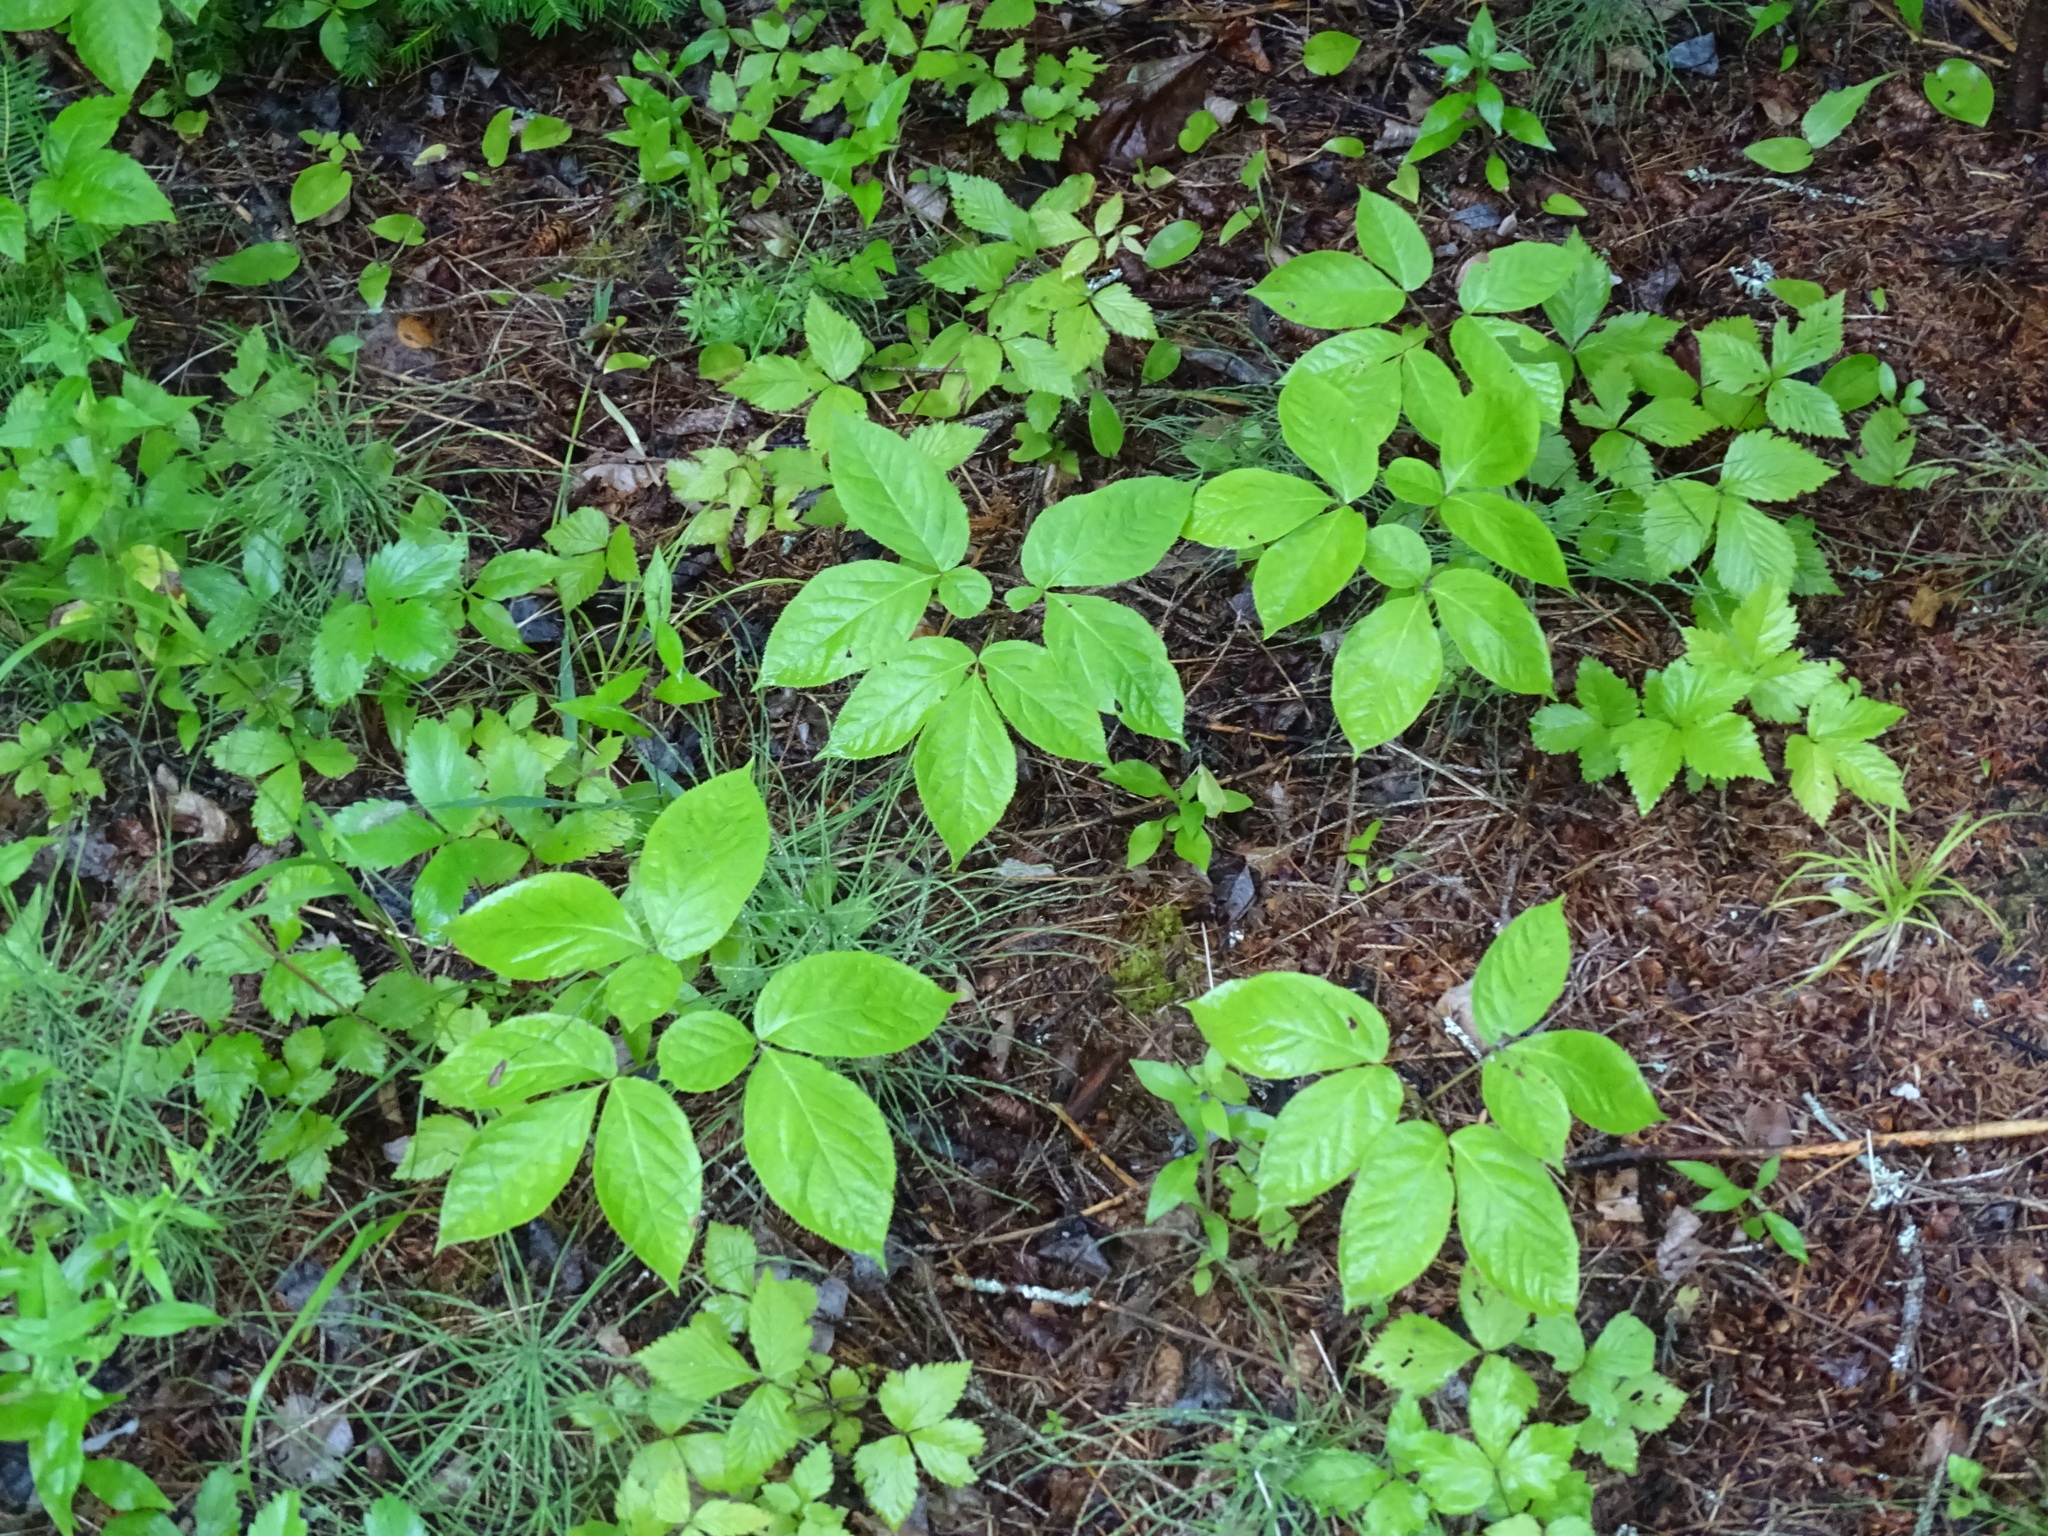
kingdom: Plantae
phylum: Tracheophyta
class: Magnoliopsida
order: Apiales
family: Araliaceae
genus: Aralia
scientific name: Aralia nudicaulis
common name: Wild sarsaparilla
